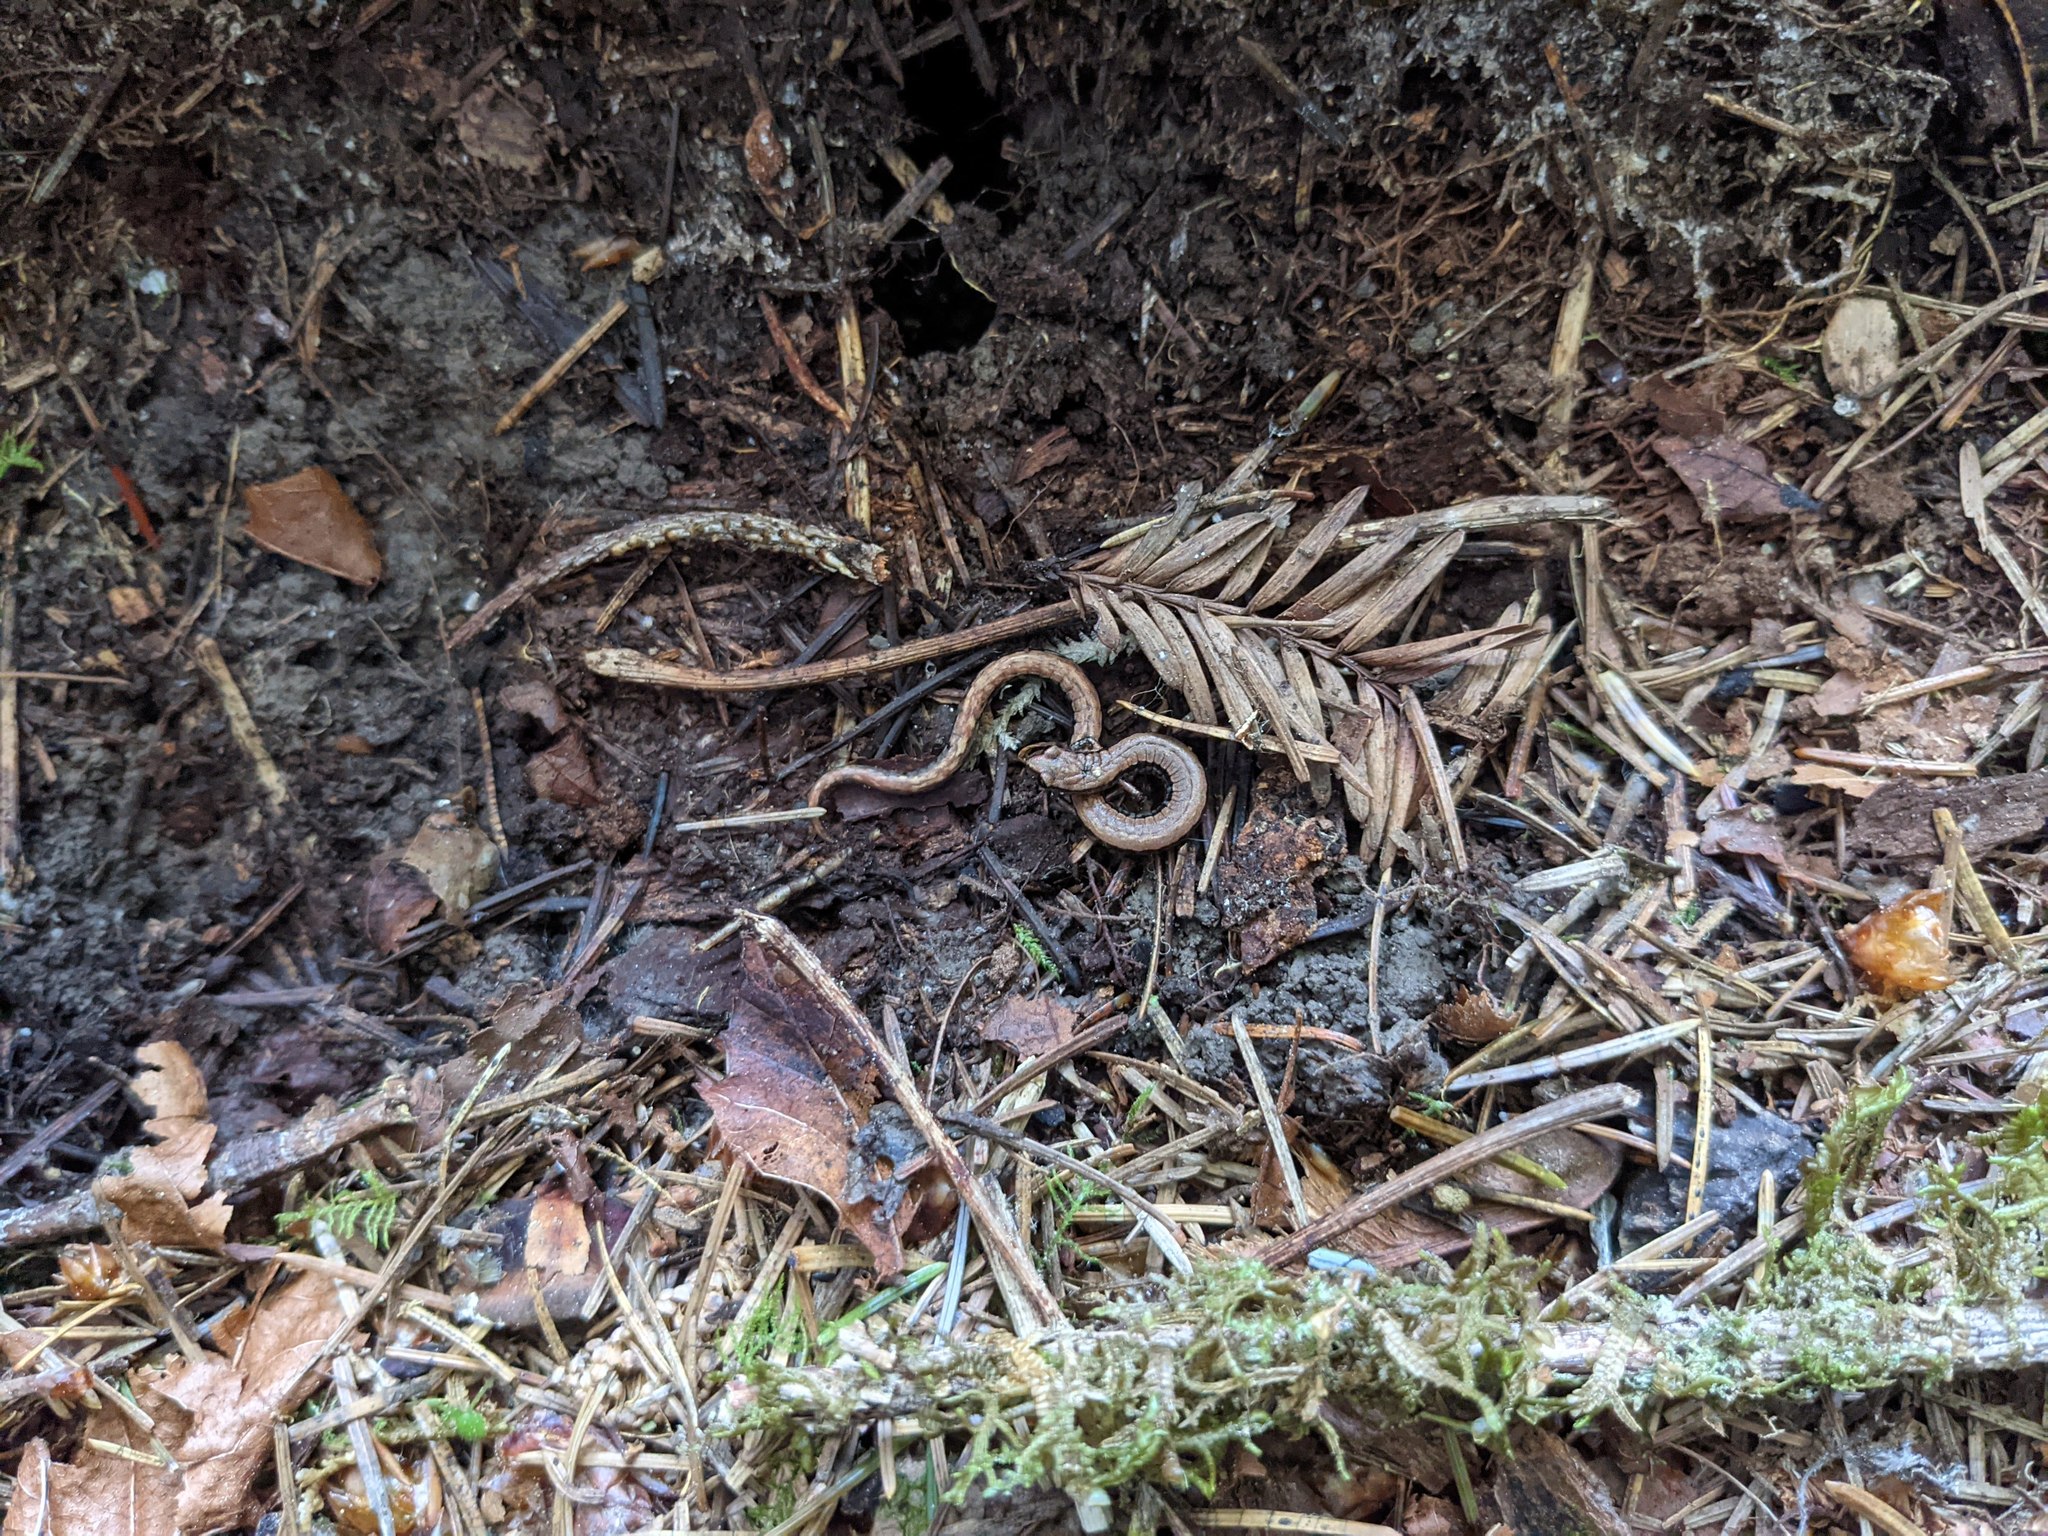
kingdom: Animalia
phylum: Chordata
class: Amphibia
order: Caudata
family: Plethodontidae
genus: Batrachoseps
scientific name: Batrachoseps attenuatus
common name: California slender salamander
